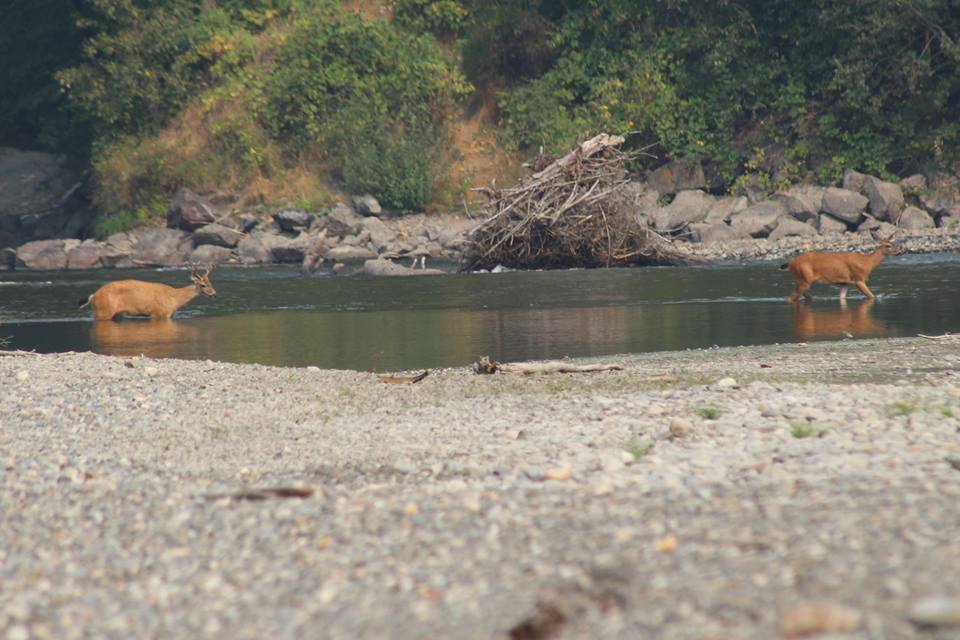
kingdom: Animalia
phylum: Chordata
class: Mammalia
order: Artiodactyla
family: Cervidae
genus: Odocoileus
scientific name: Odocoileus hemionus
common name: Mule deer
